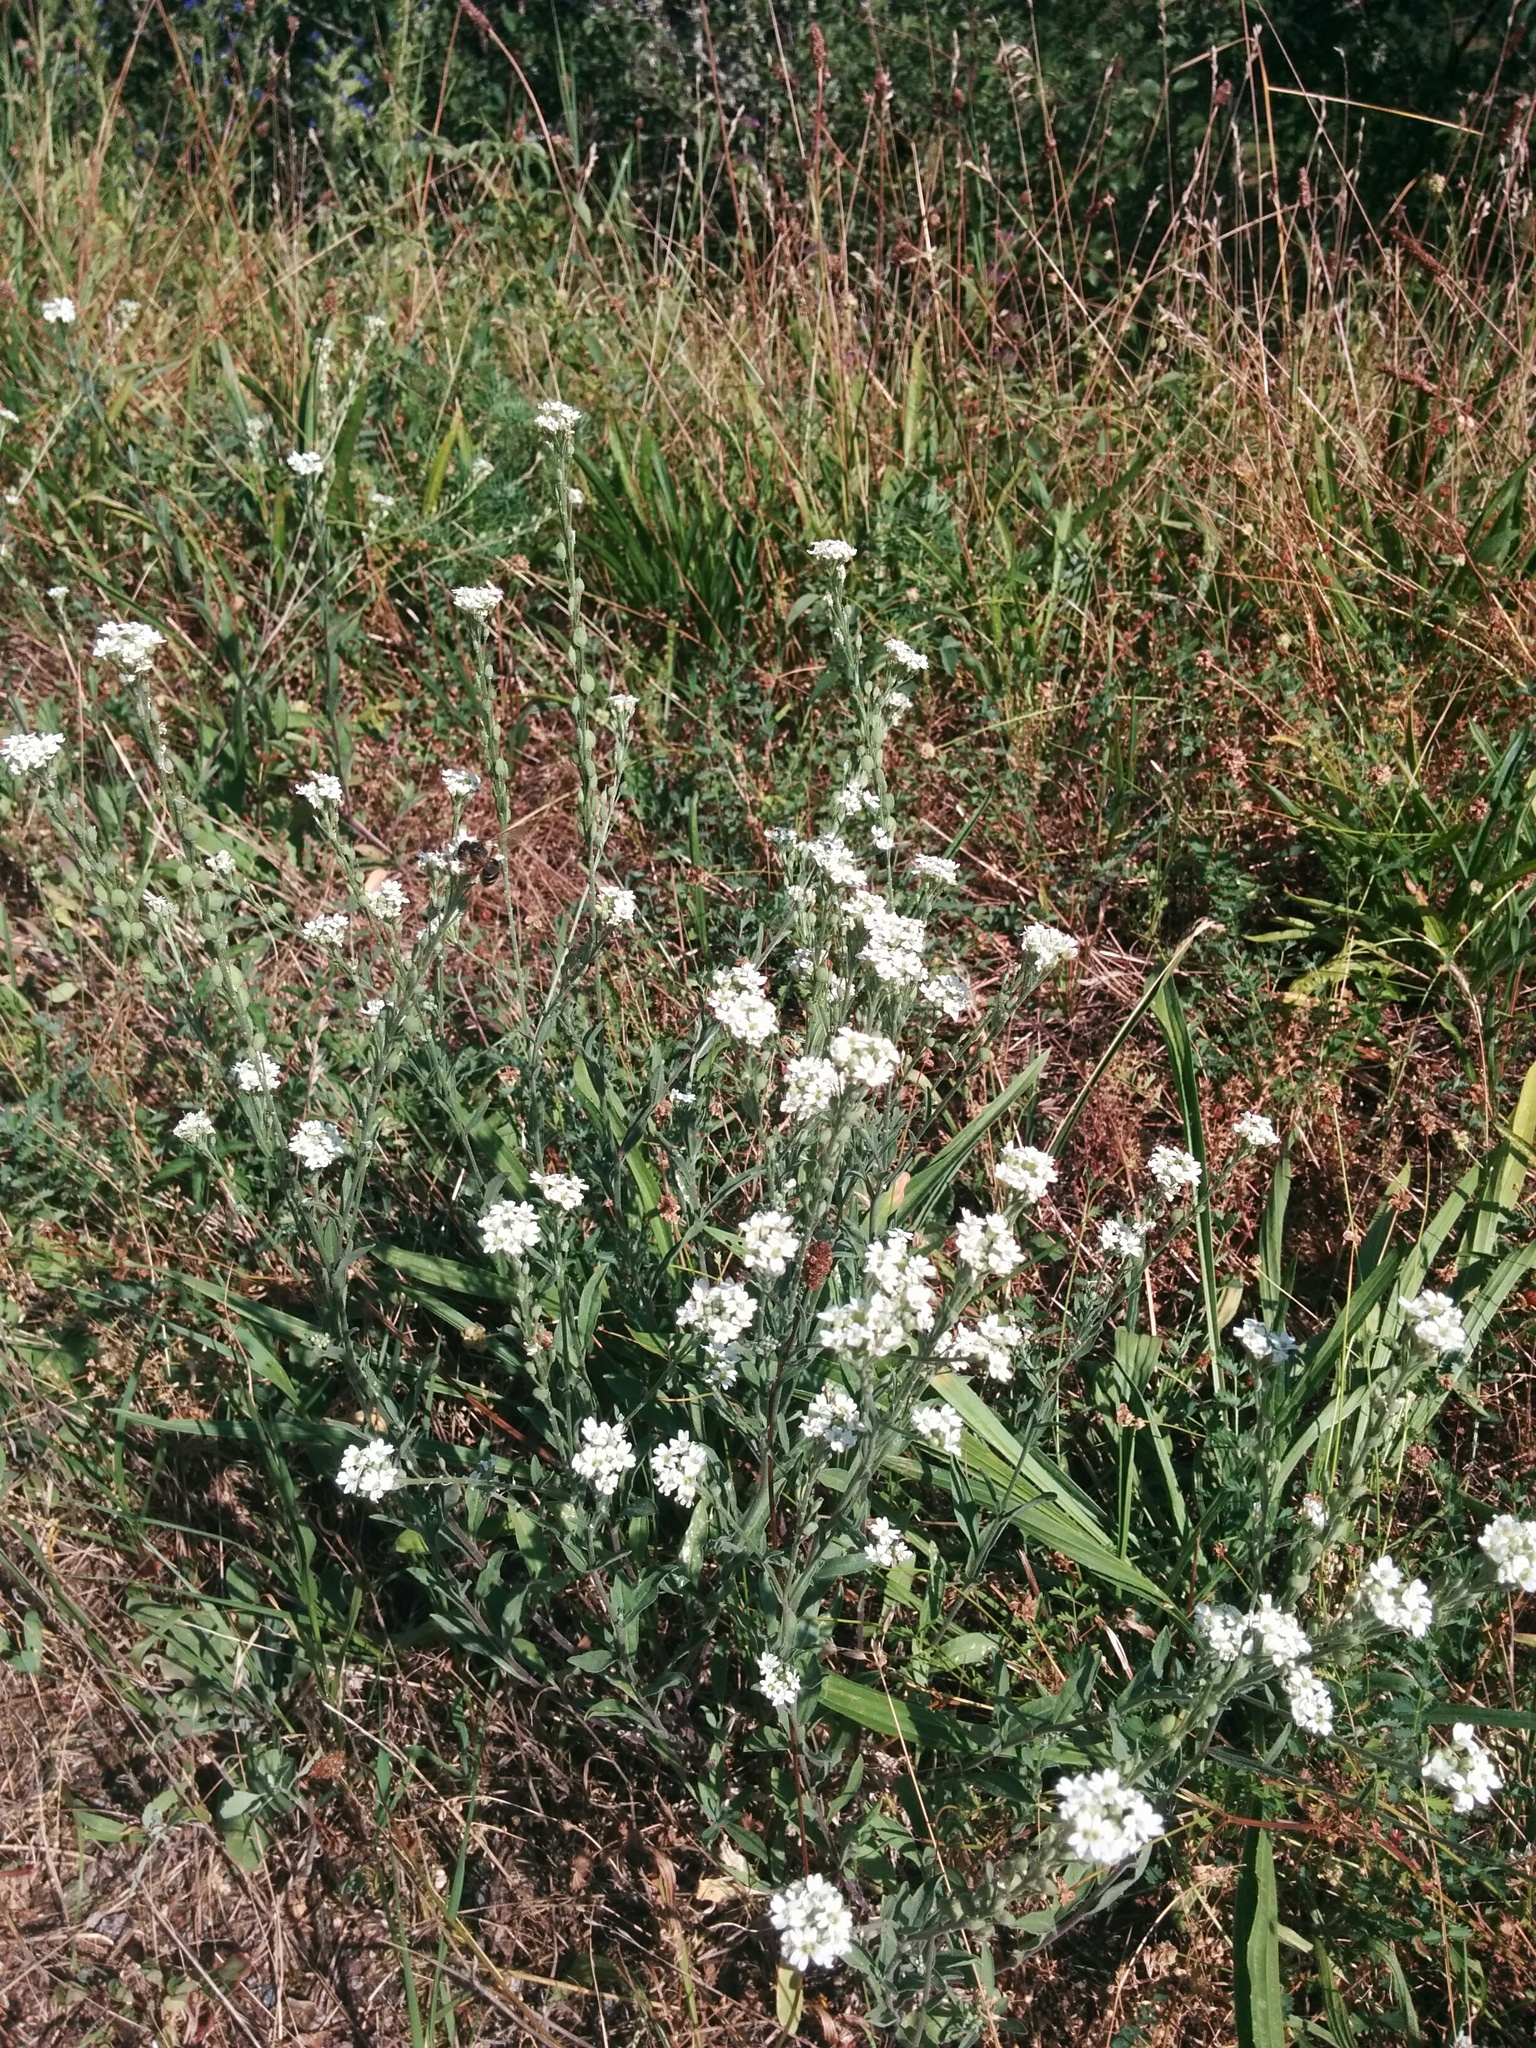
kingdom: Plantae
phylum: Tracheophyta
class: Magnoliopsida
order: Brassicales
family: Brassicaceae
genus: Berteroa
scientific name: Berteroa incana
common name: Hoary alison
